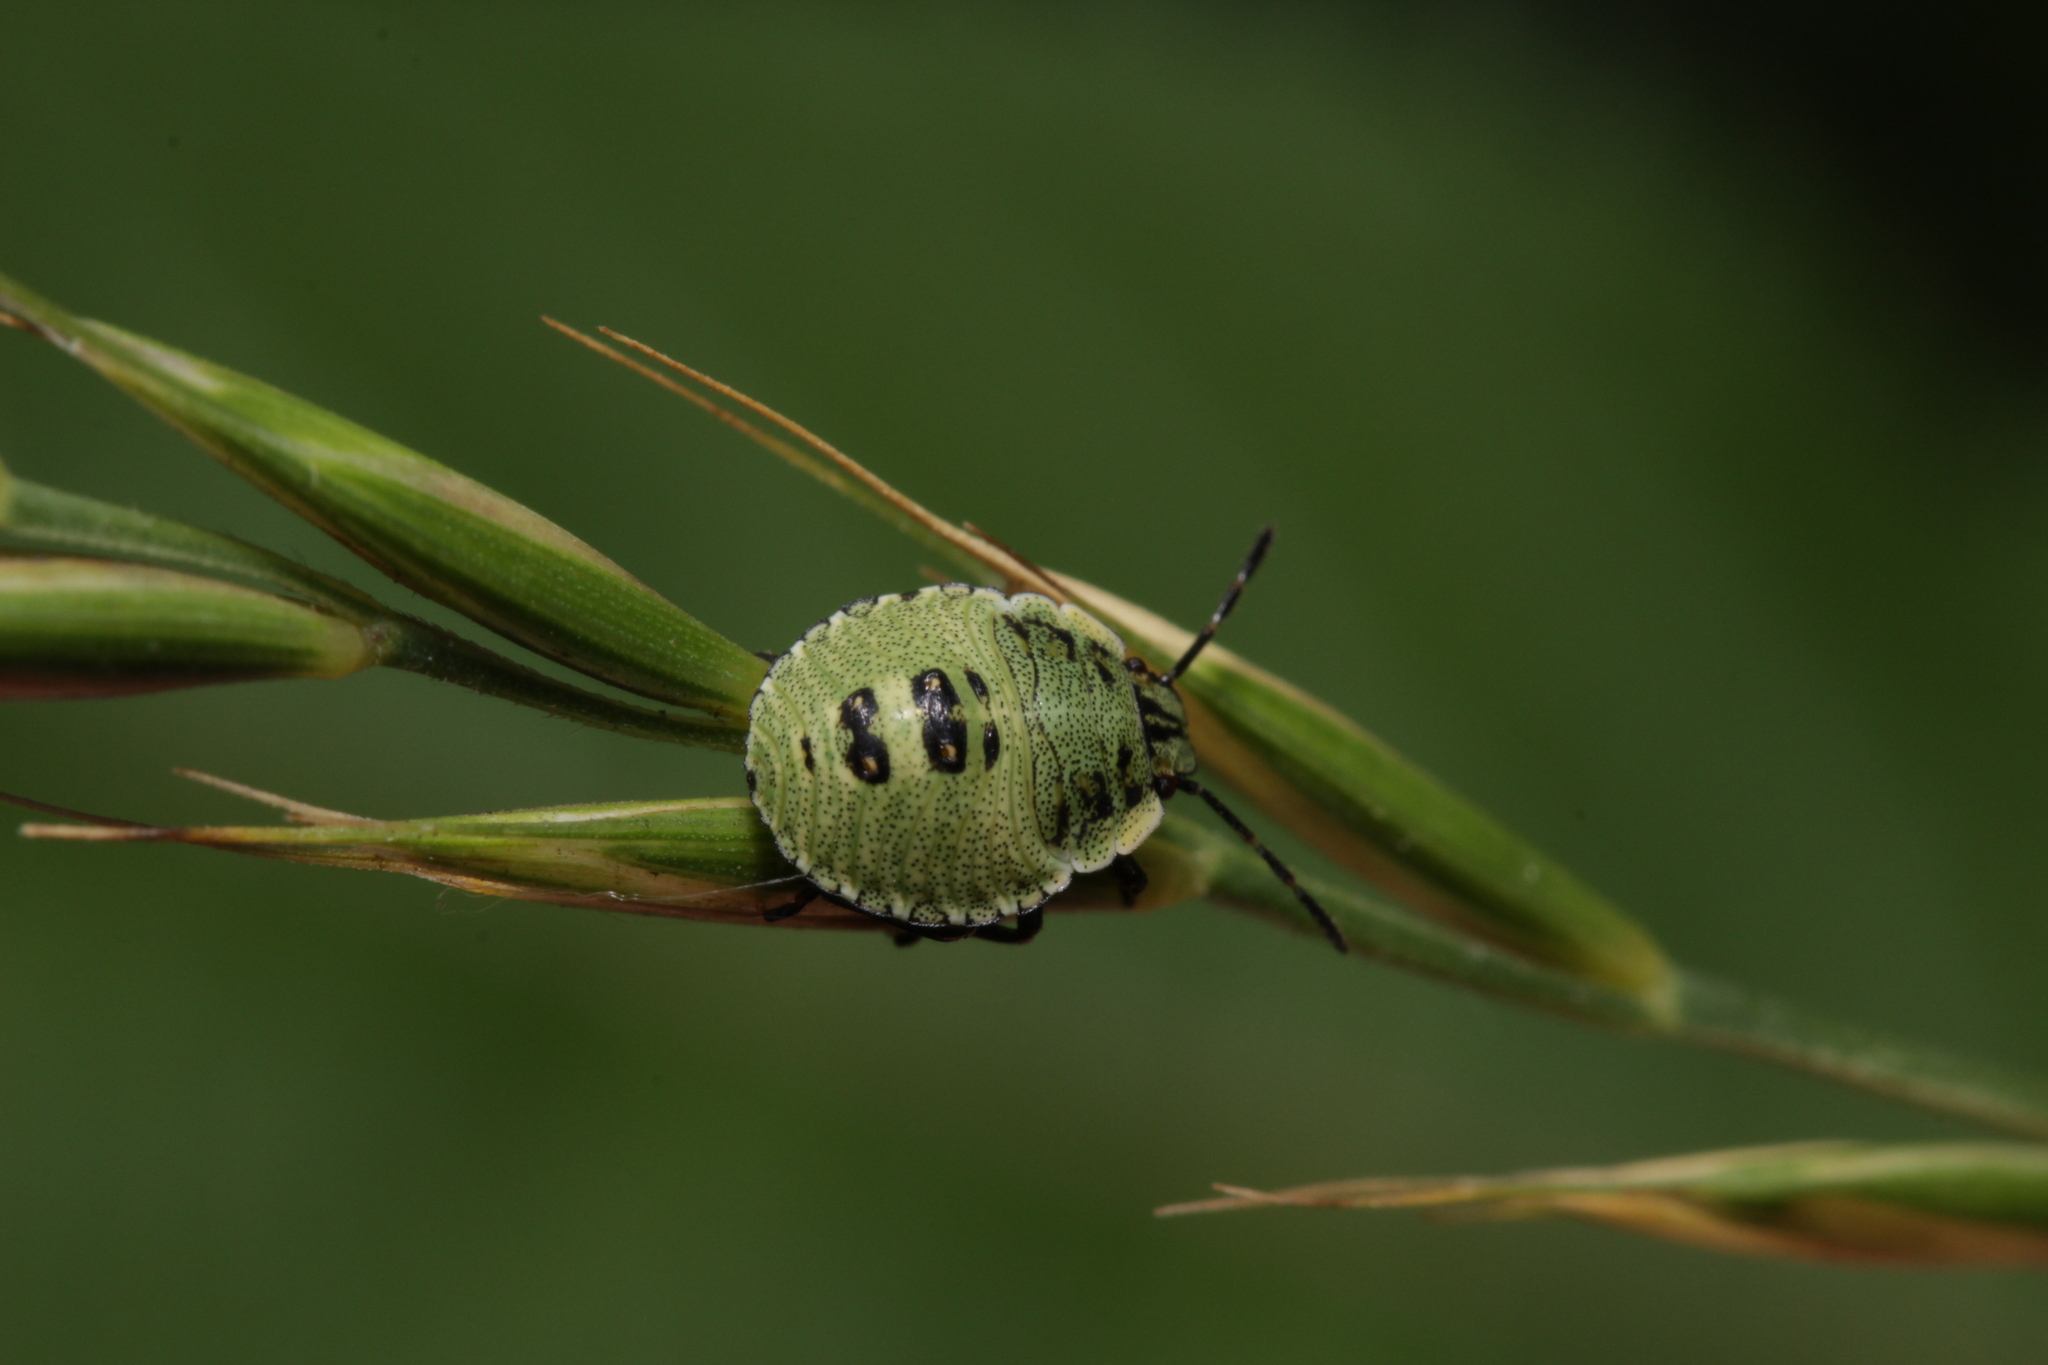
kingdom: Animalia
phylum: Arthropoda
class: Insecta
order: Hemiptera
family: Pentatomidae
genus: Palomena
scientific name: Palomena prasina
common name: Green shieldbug
